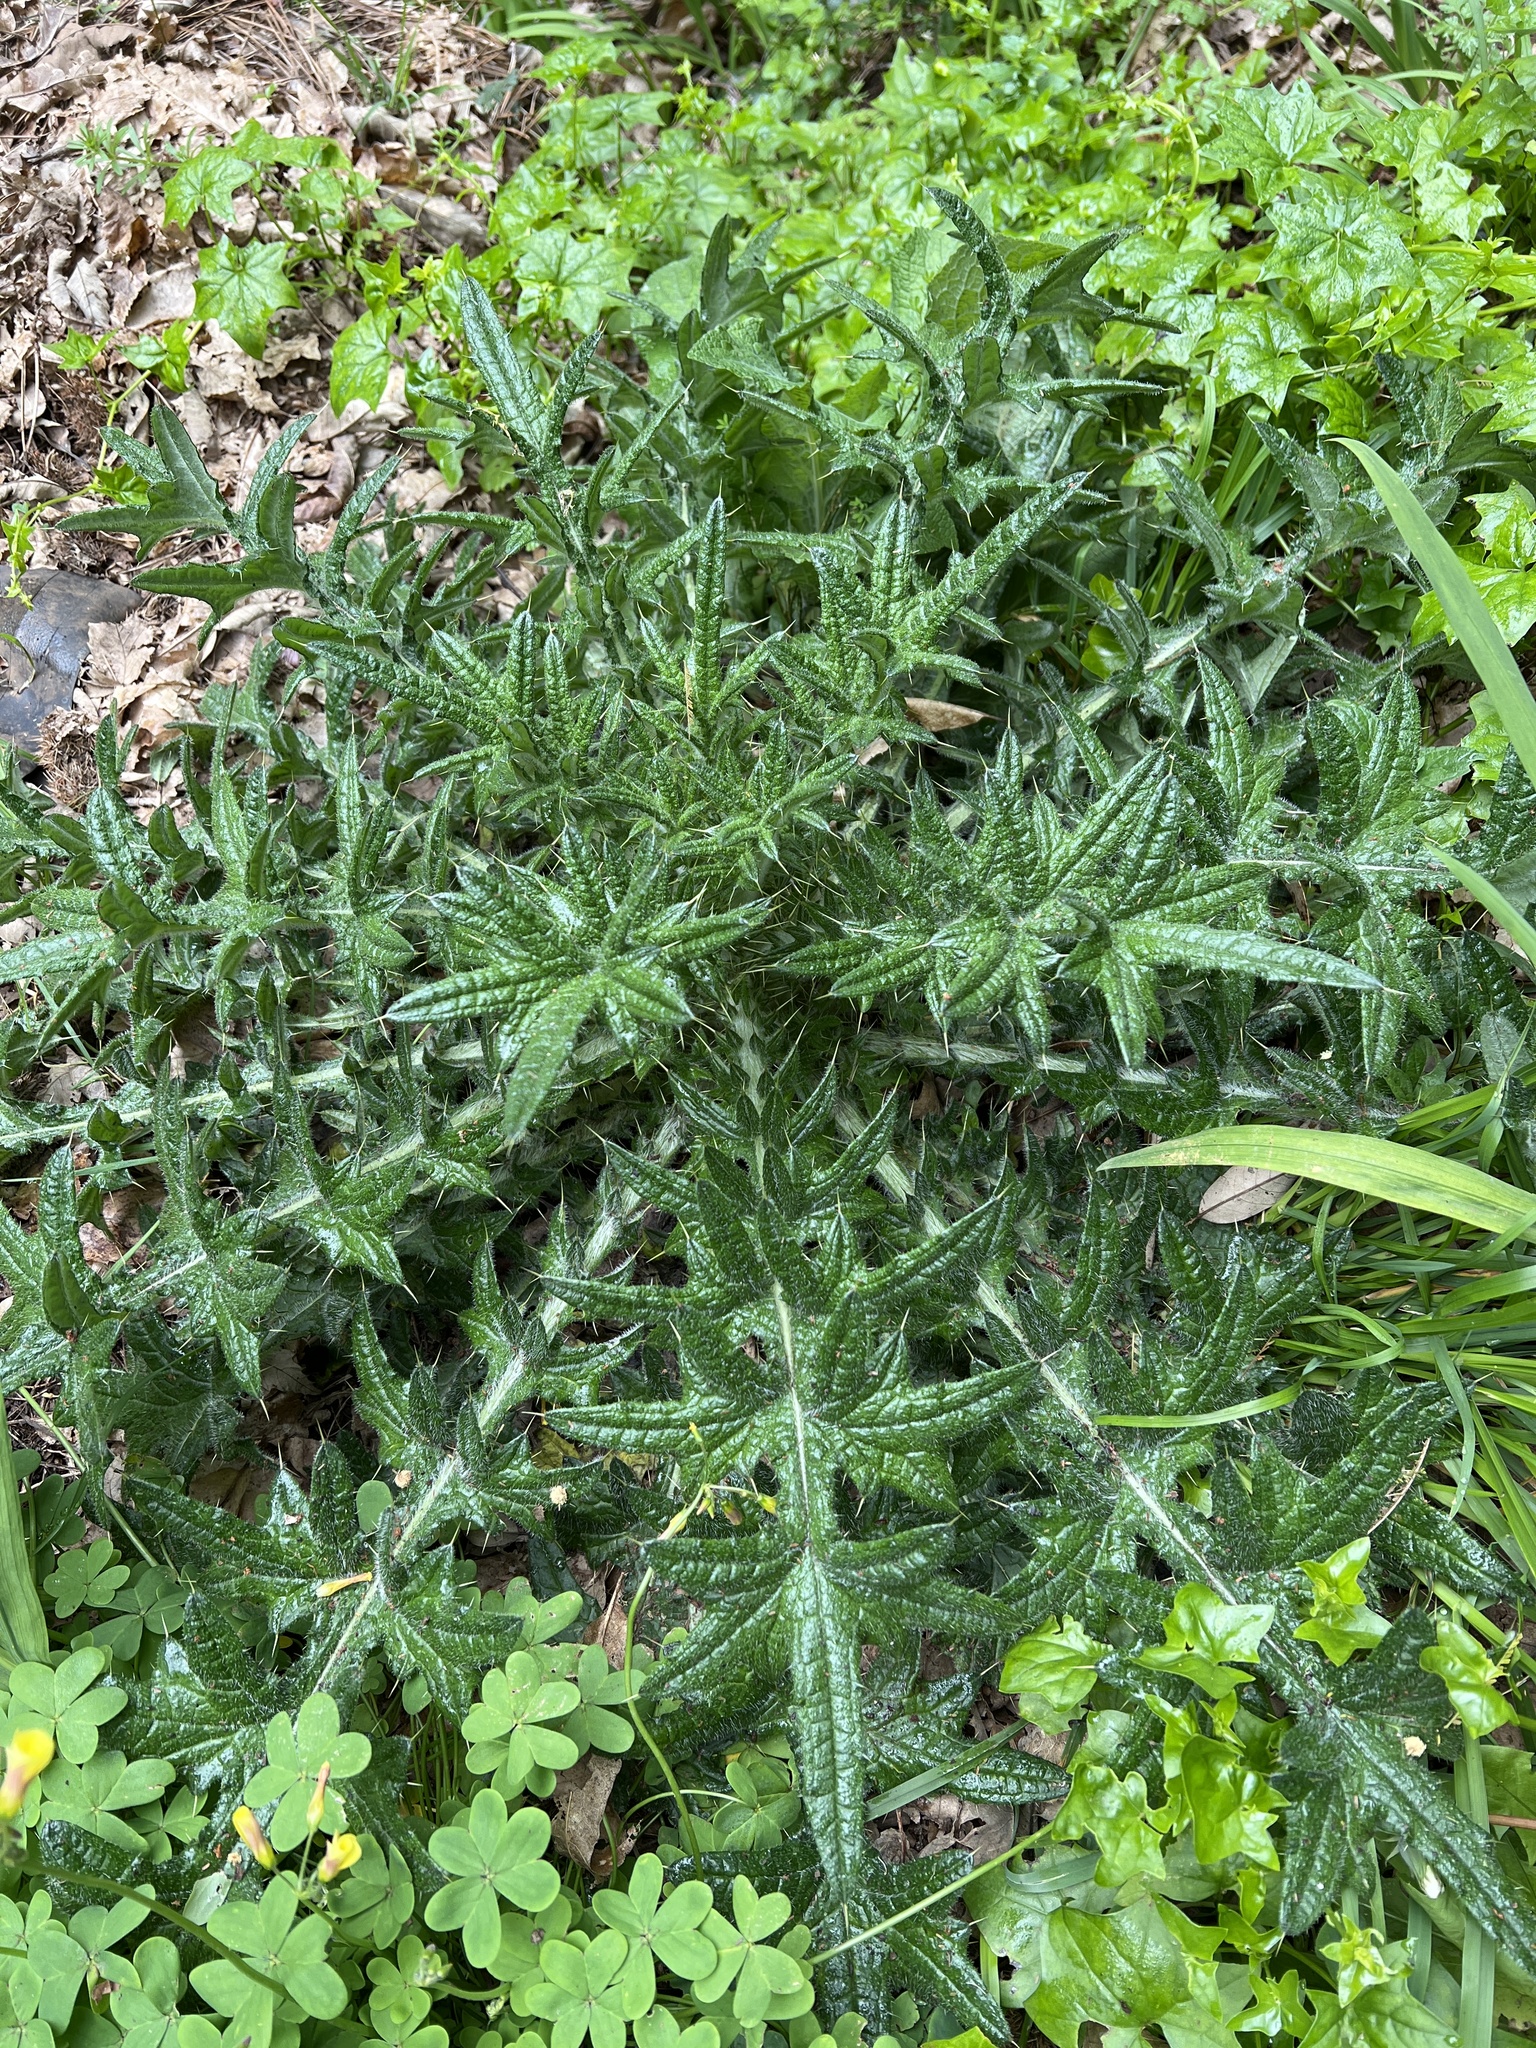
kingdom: Plantae
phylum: Tracheophyta
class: Magnoliopsida
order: Asterales
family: Asteraceae
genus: Cirsium
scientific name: Cirsium vulgare
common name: Bull thistle
